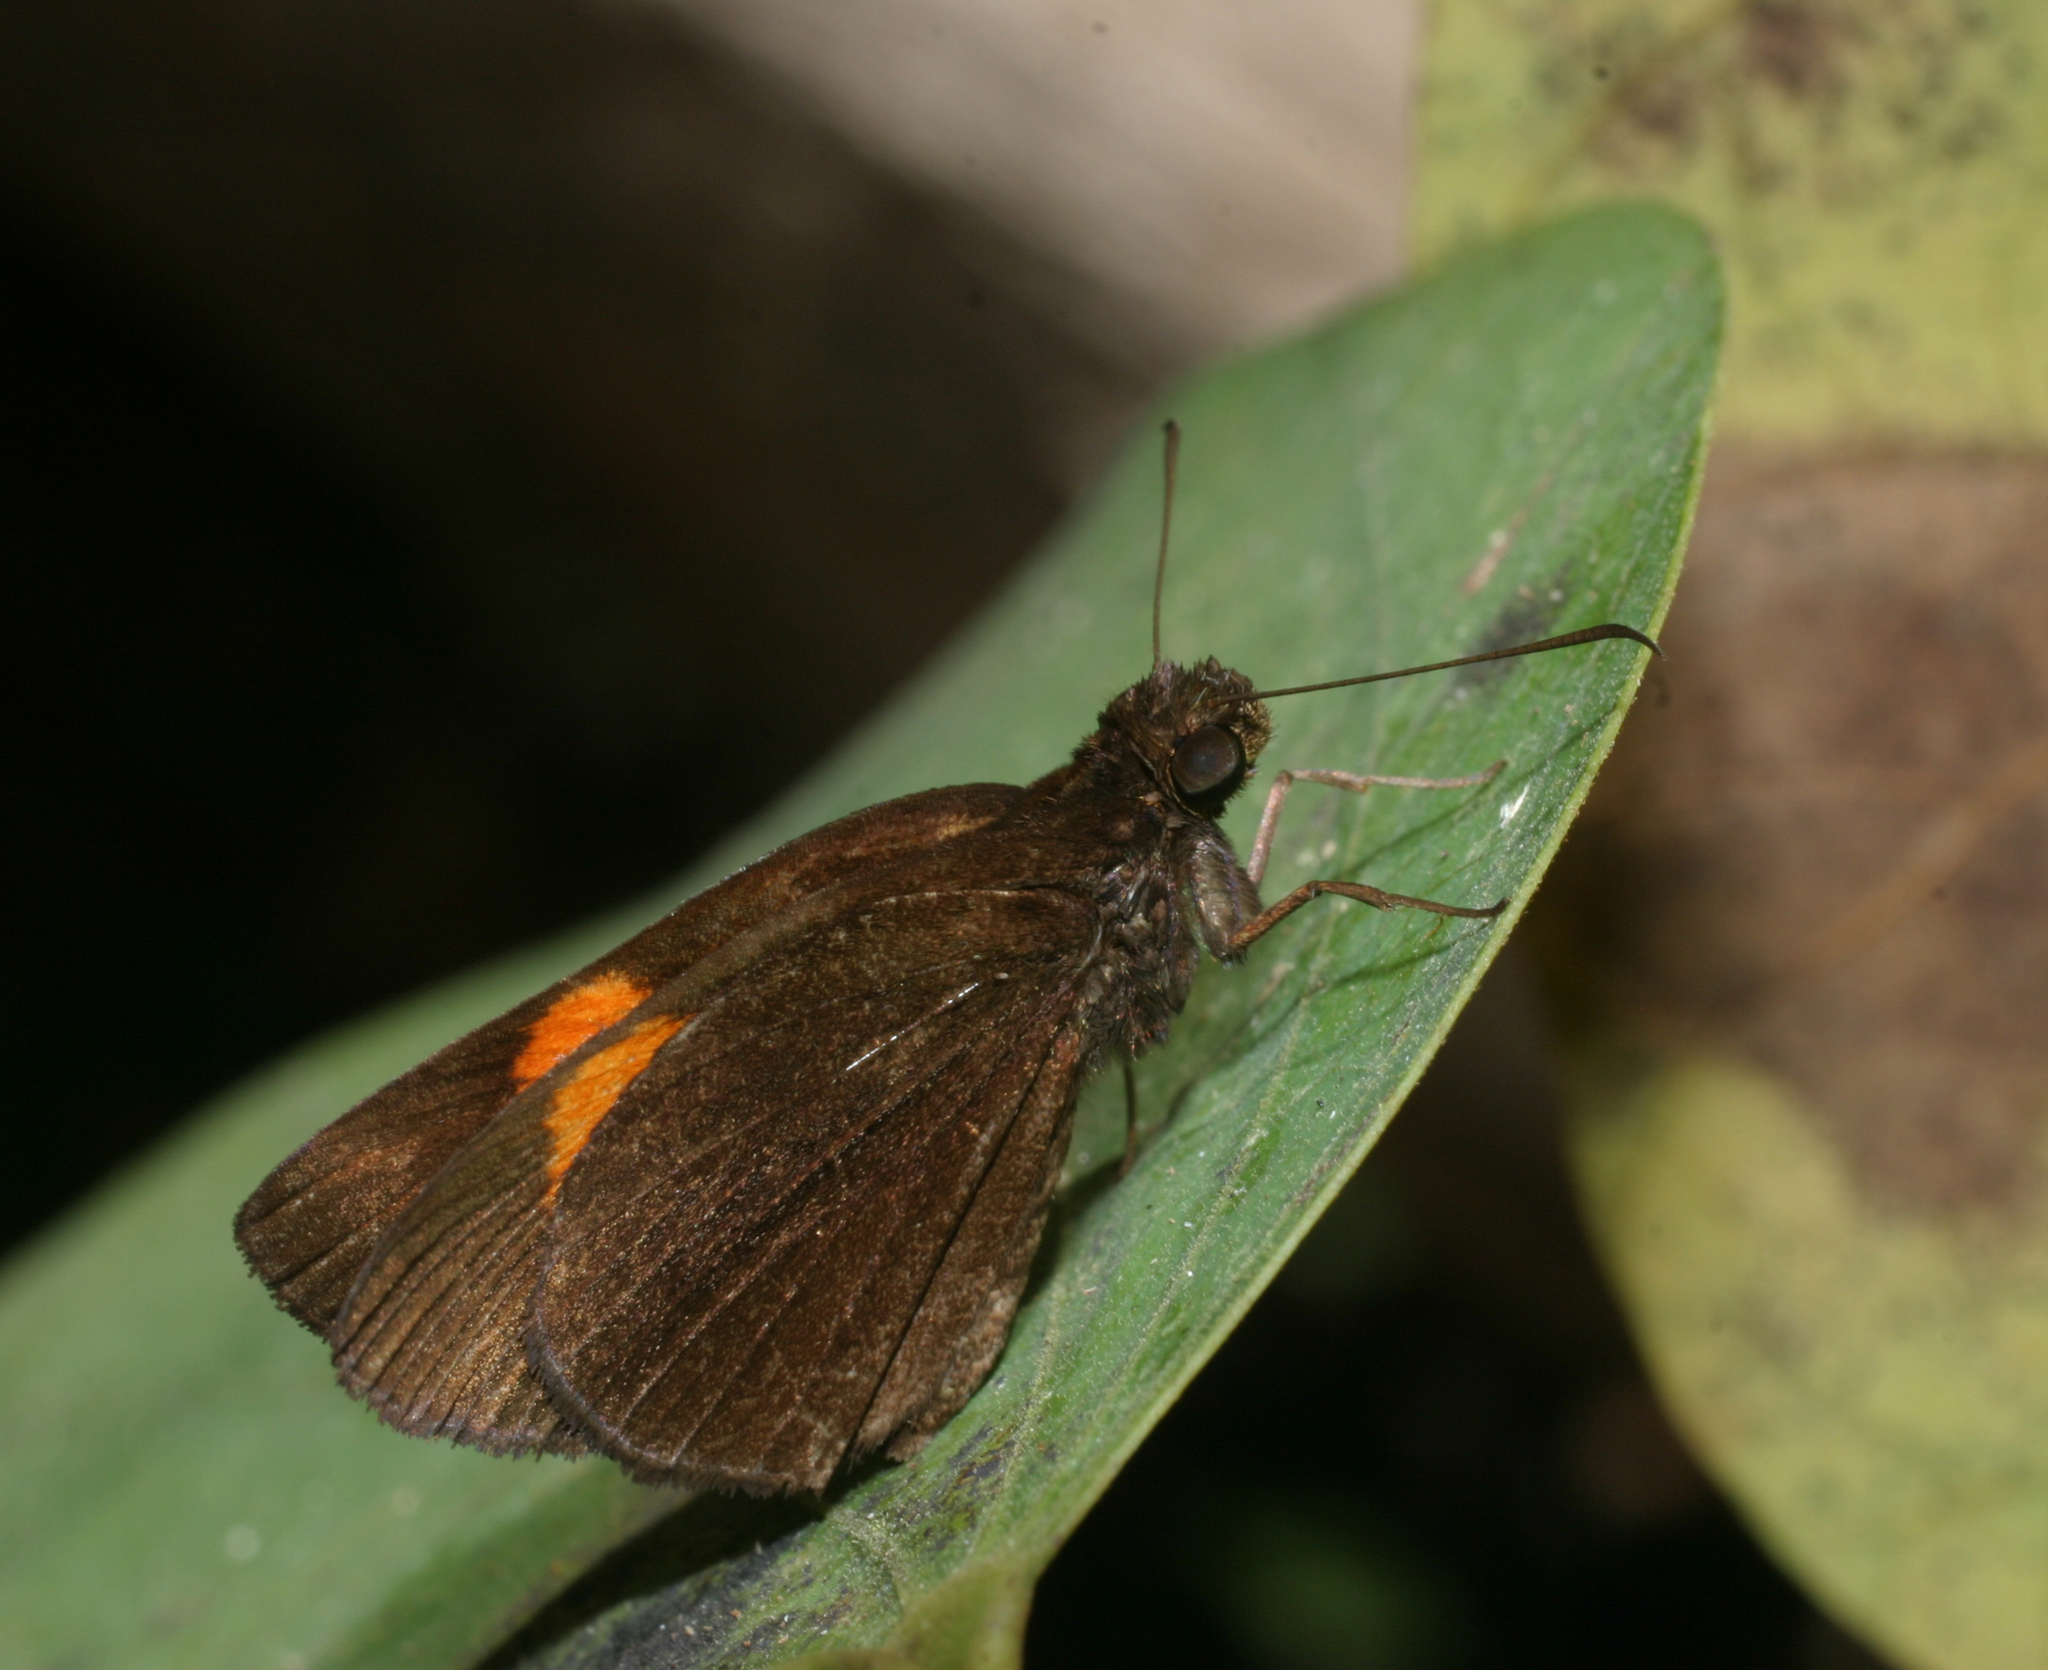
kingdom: Animalia
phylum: Arthropoda
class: Insecta
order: Lepidoptera
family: Hesperiidae
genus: Koruthaialos
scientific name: Koruthaialos sindu
